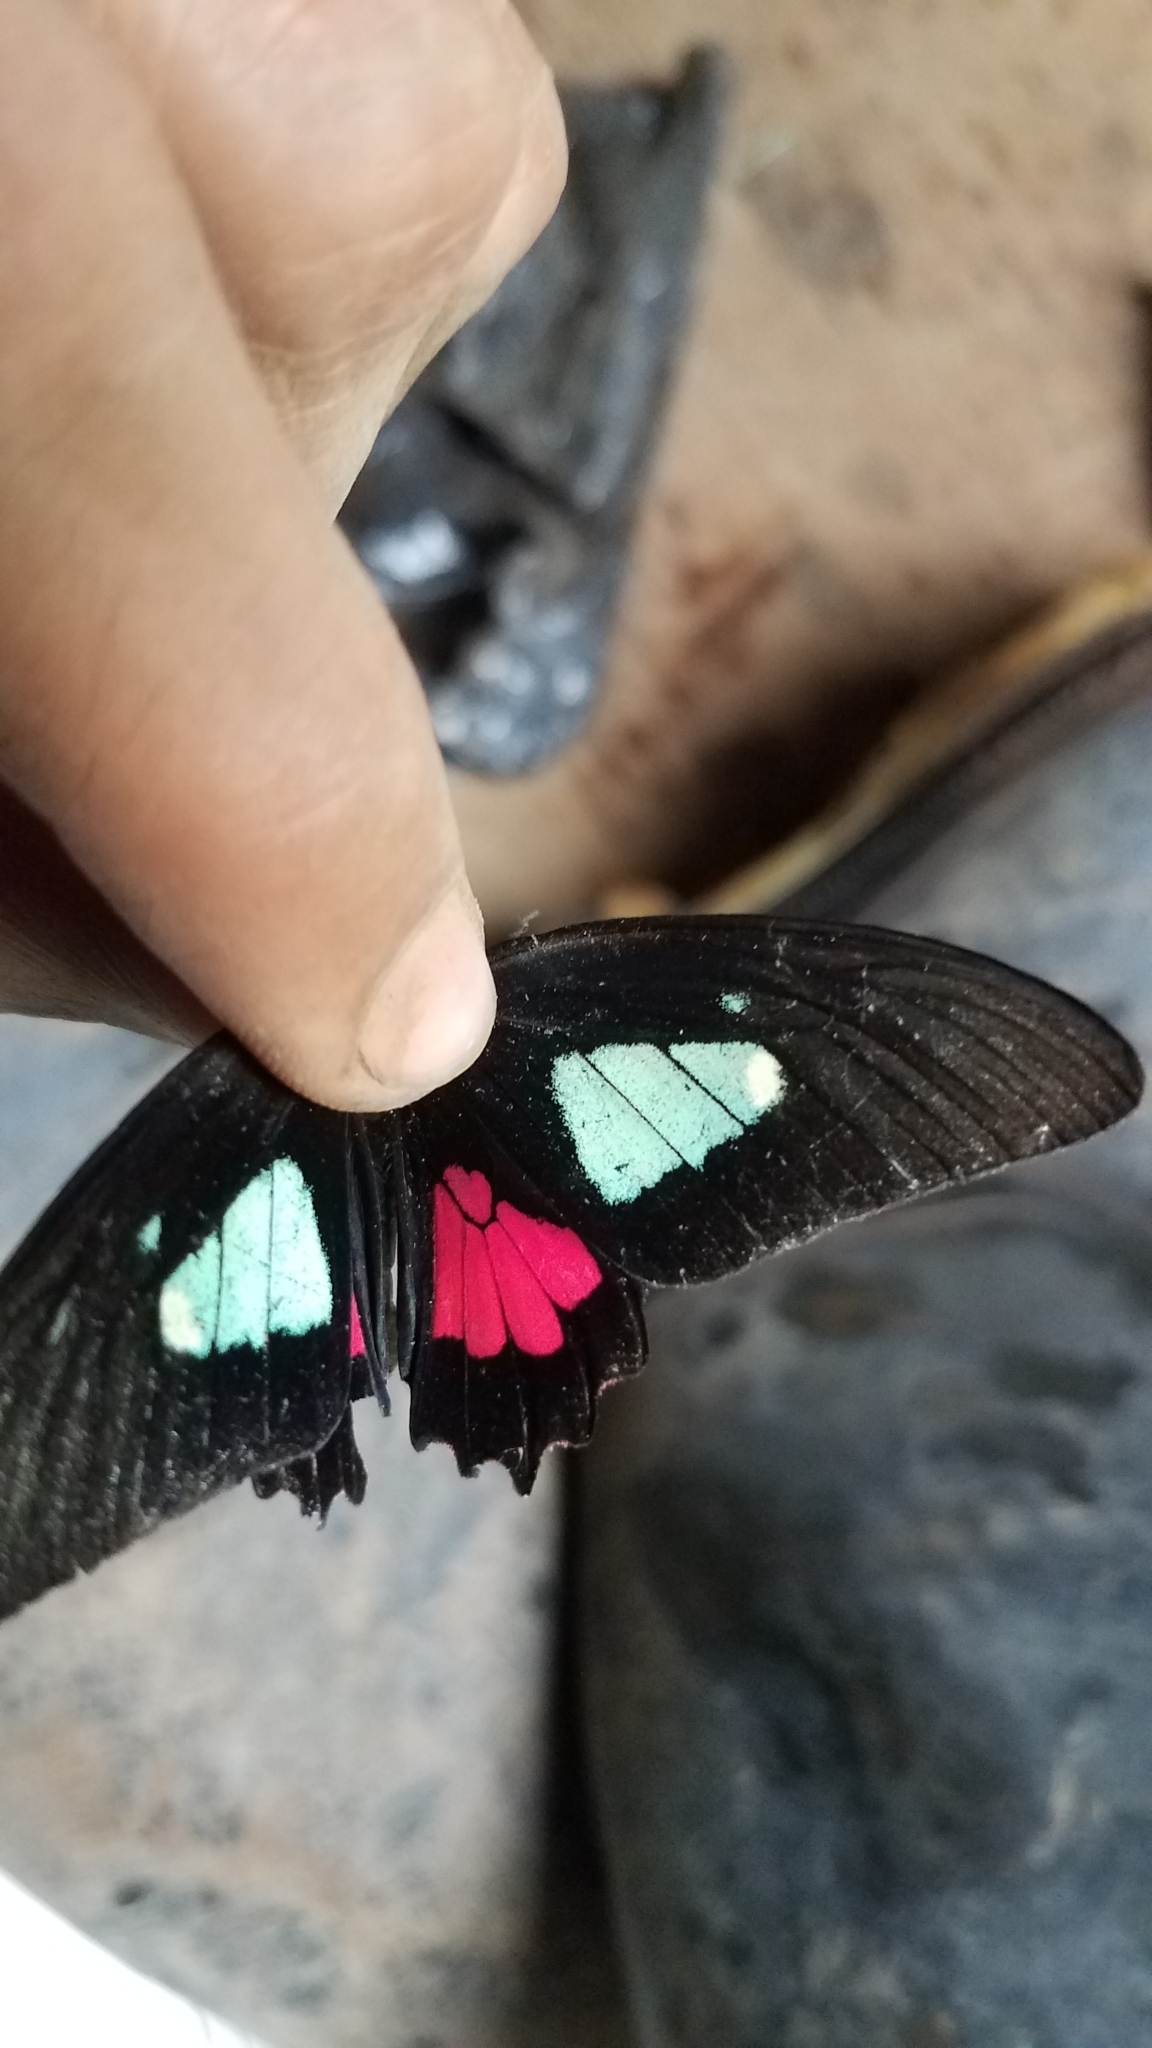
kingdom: Animalia
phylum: Arthropoda
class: Insecta
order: Lepidoptera
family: Papilionidae
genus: Parides
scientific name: Parides eurimedes
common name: True cattleheart
